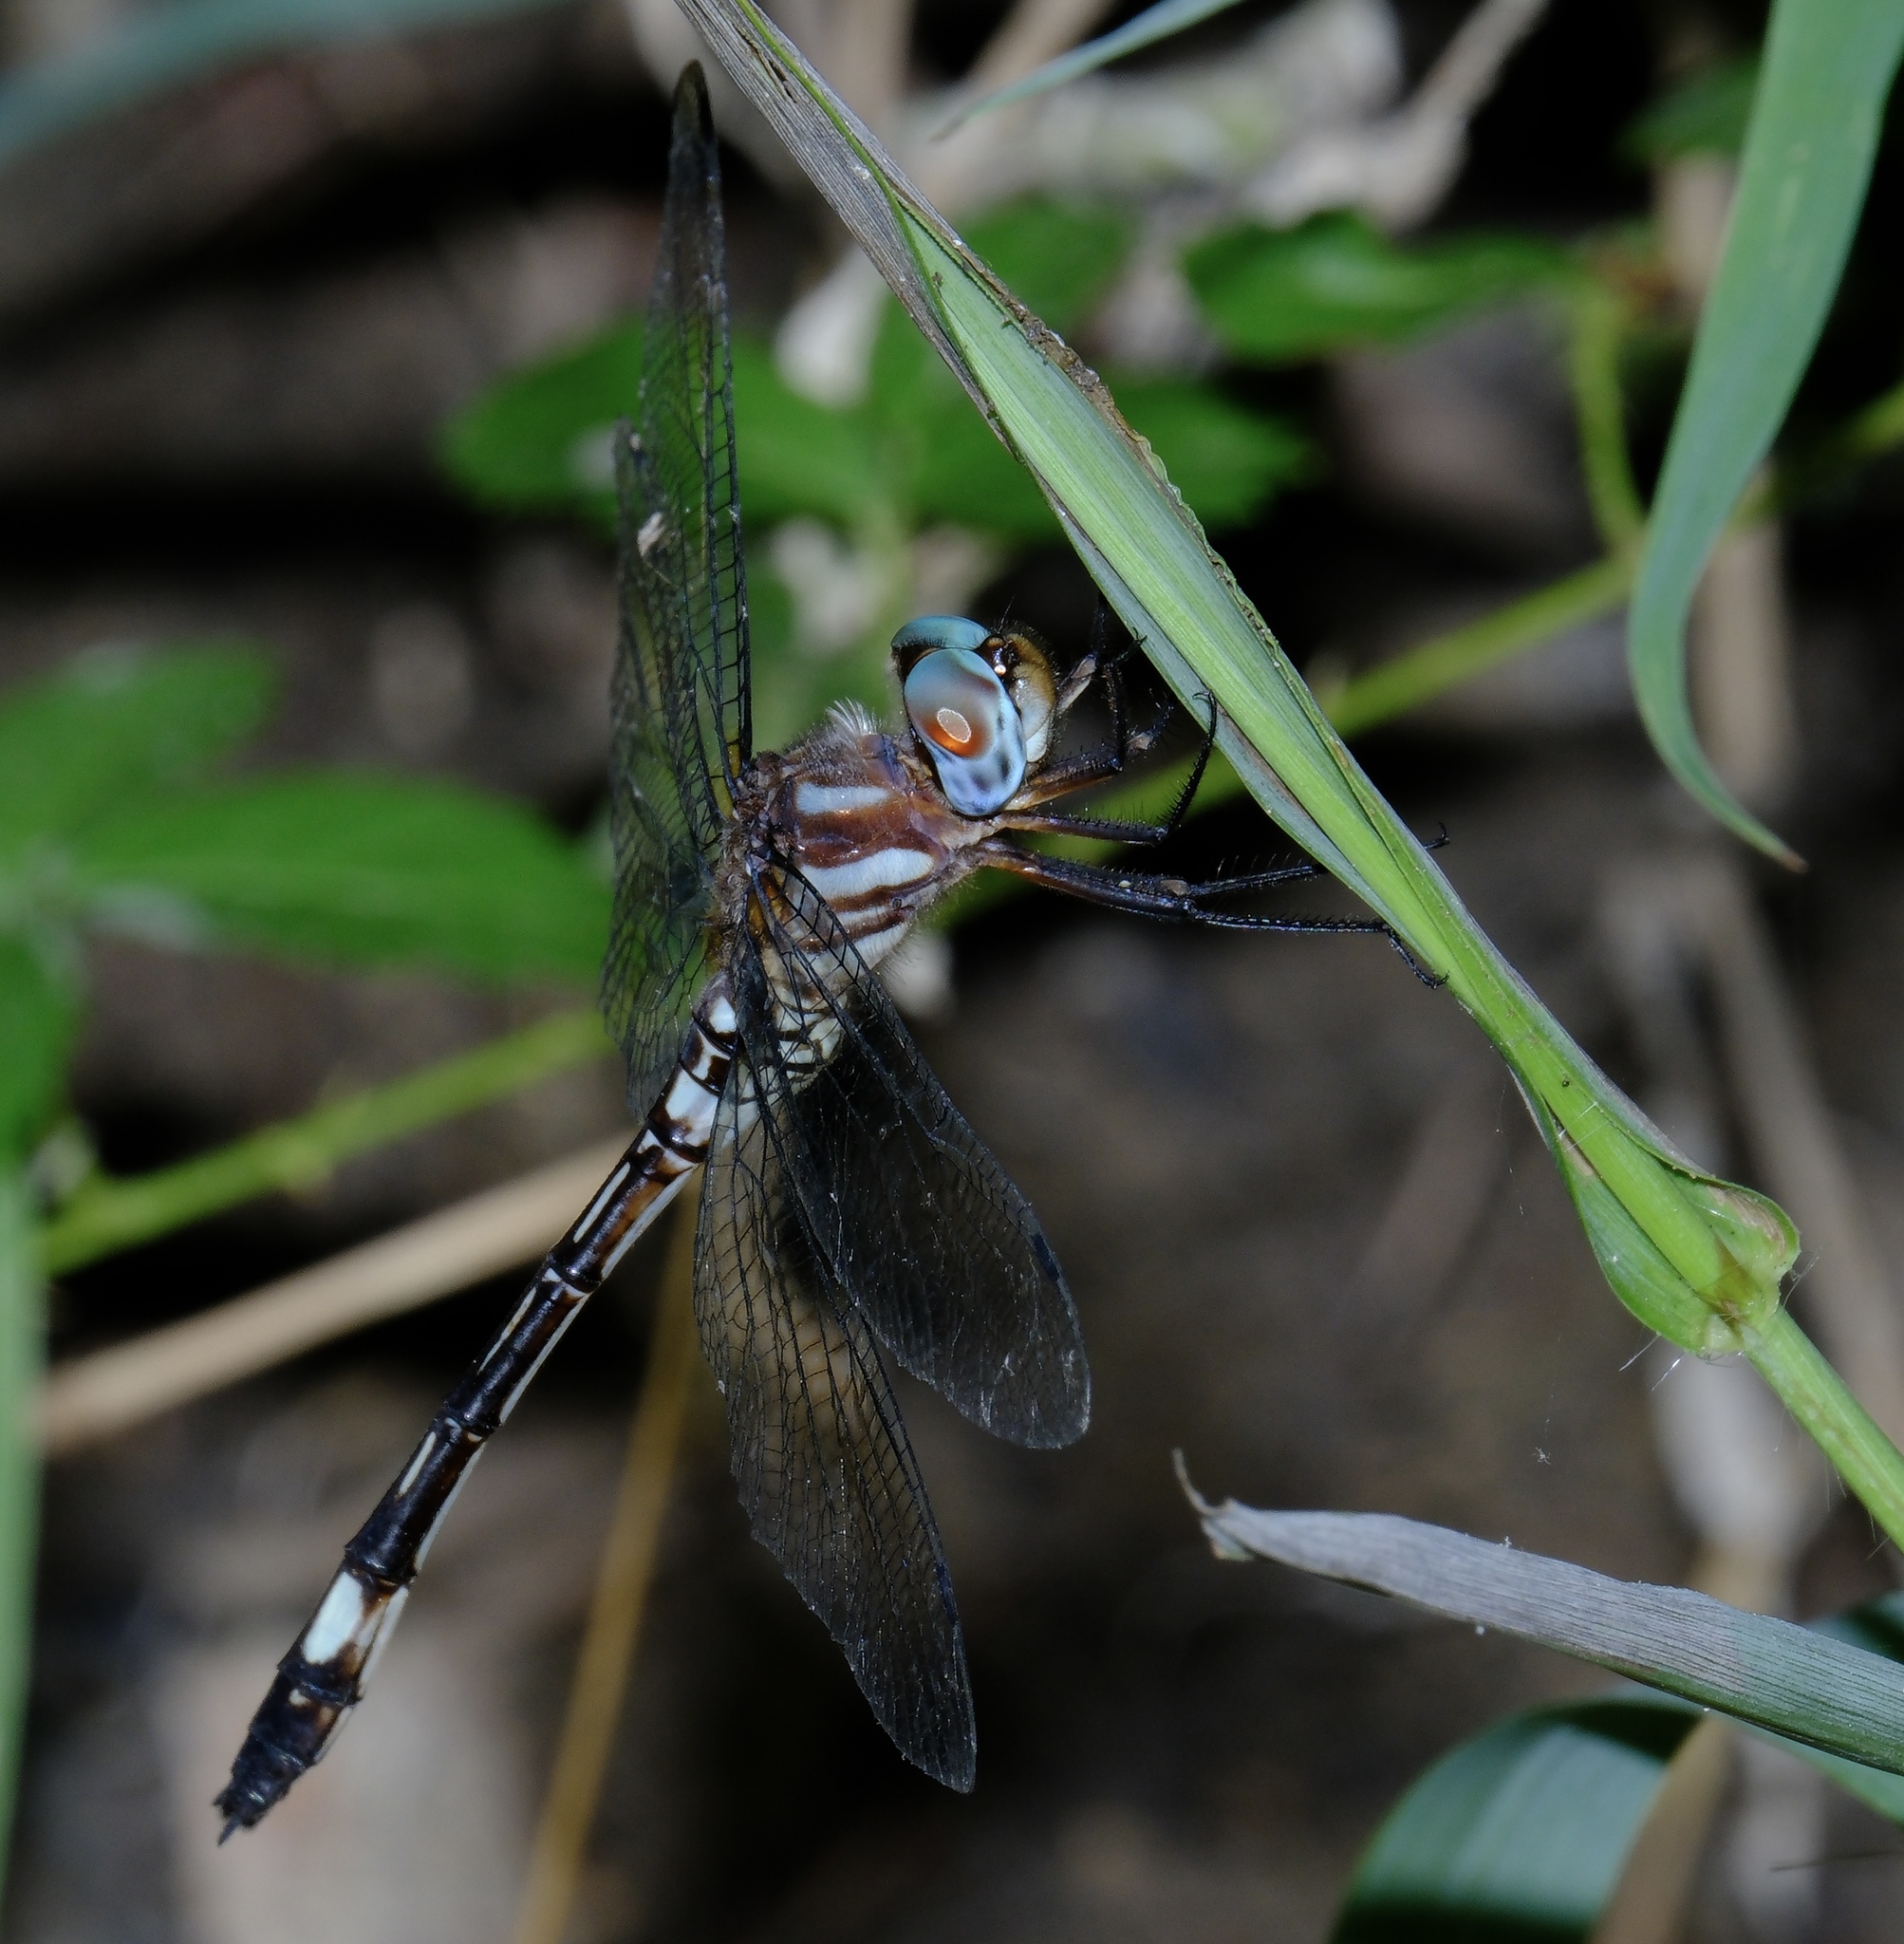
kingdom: Animalia
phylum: Arthropoda
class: Insecta
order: Odonata
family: Libellulidae
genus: Brechmorhoga
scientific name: Brechmorhoga mendax
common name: Pale-faced clubskimmer
